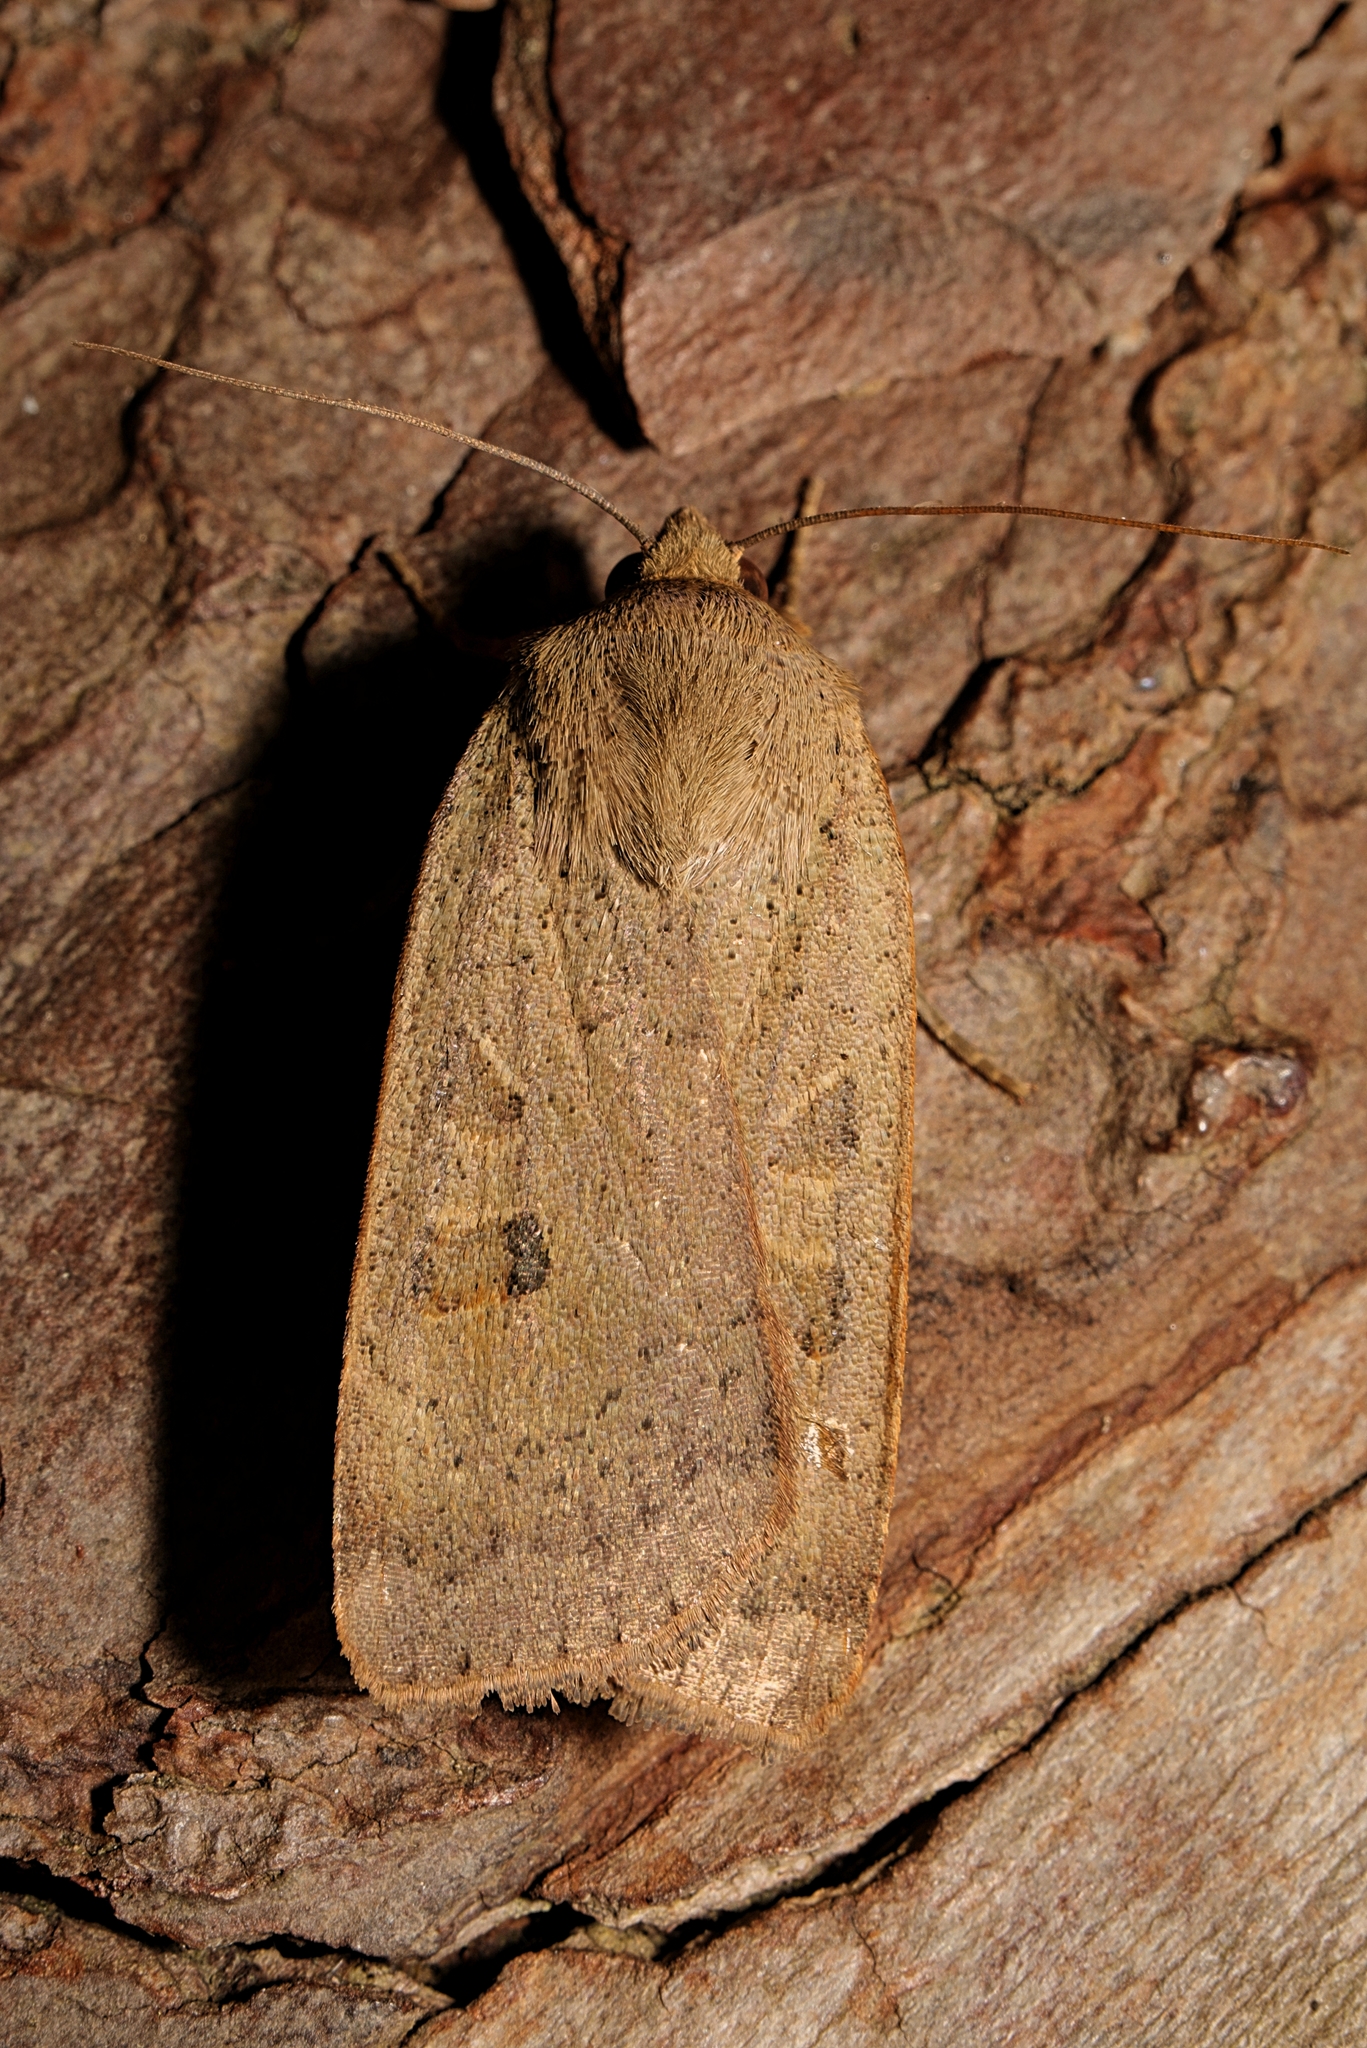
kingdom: Animalia
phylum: Arthropoda
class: Insecta
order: Lepidoptera
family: Noctuidae
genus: Noctua
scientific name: Noctua comes
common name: Lesser yellow underwing
